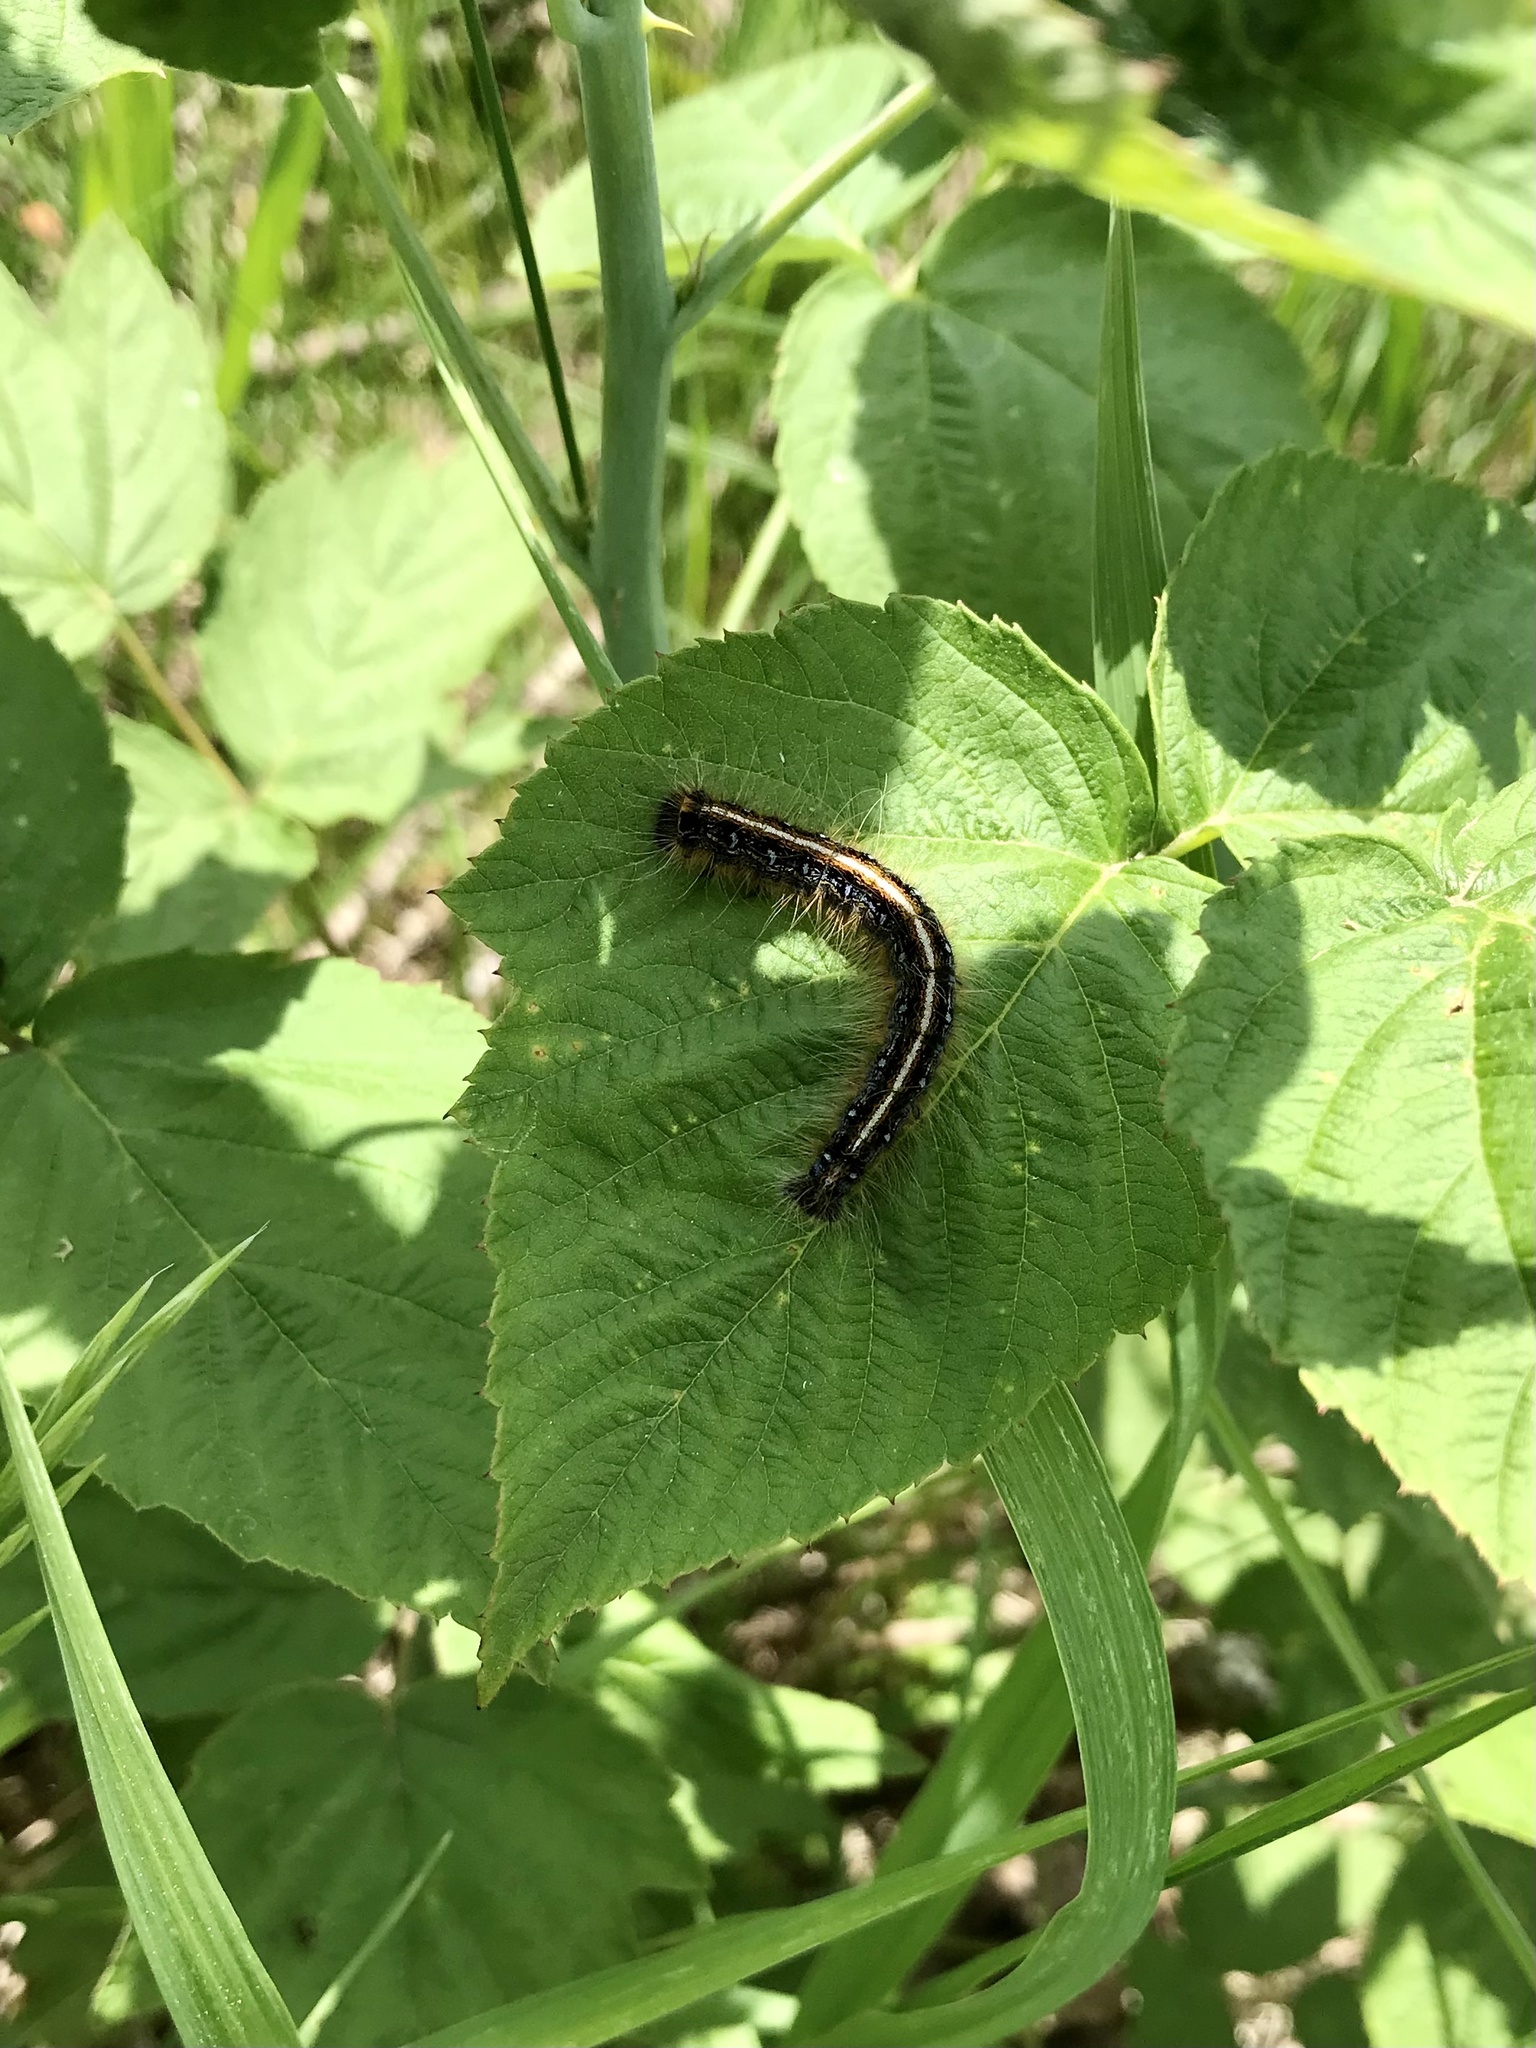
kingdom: Animalia
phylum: Arthropoda
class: Insecta
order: Lepidoptera
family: Lasiocampidae
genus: Malacosoma
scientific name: Malacosoma americana
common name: Eastern tent caterpillar moth
